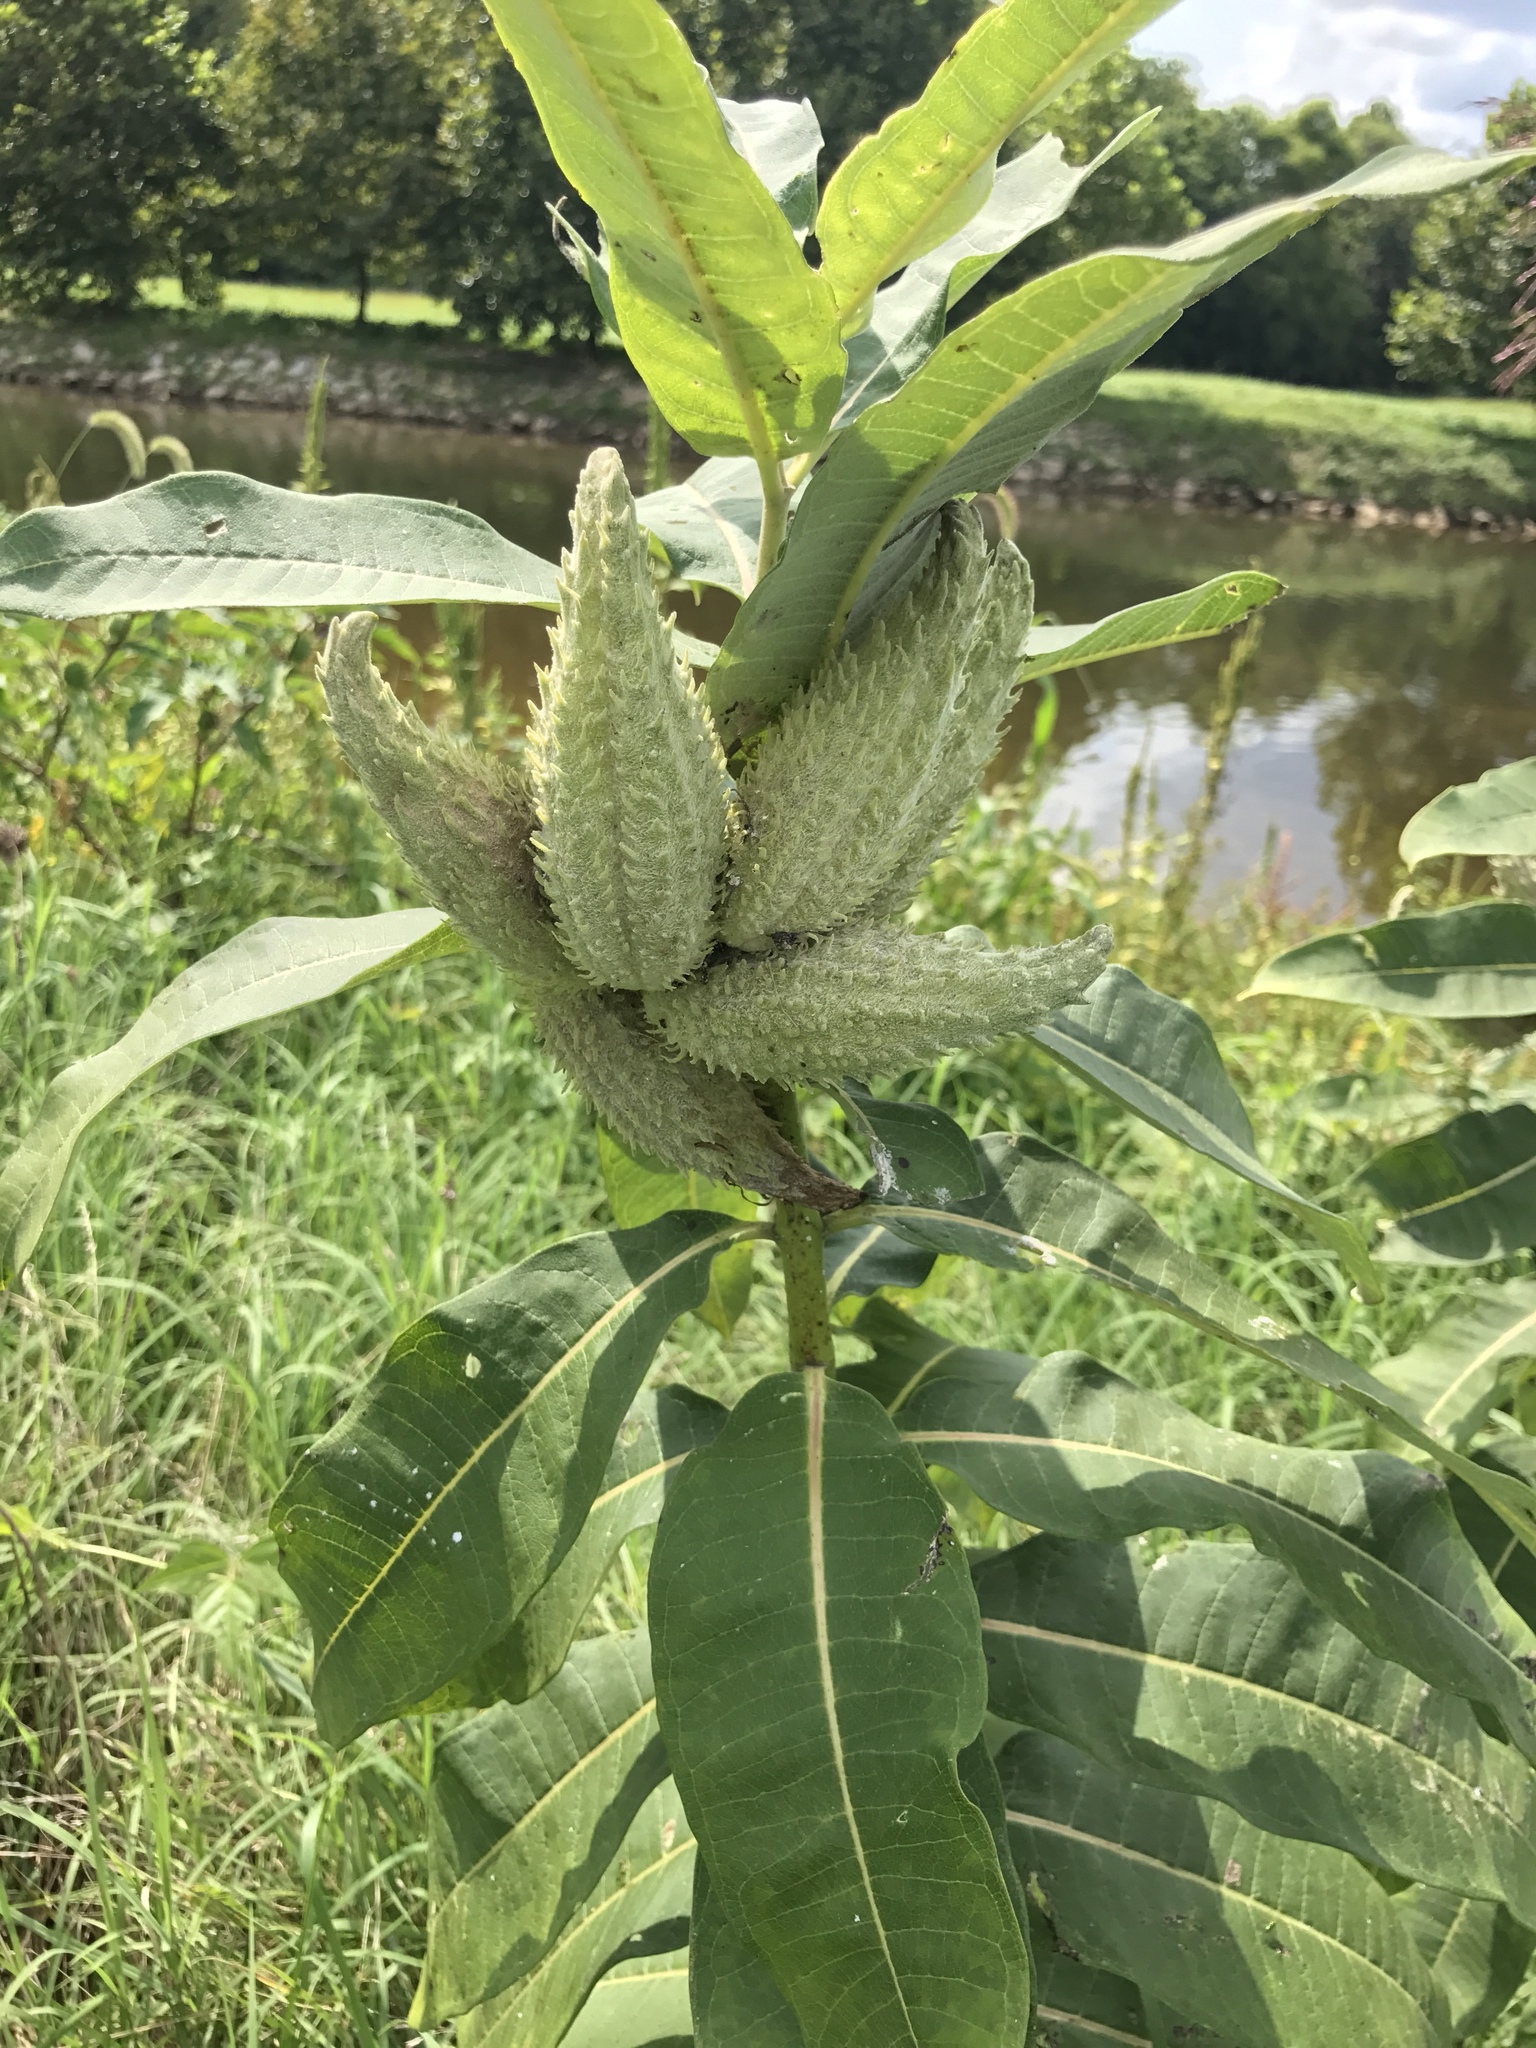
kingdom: Plantae
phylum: Tracheophyta
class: Magnoliopsida
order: Gentianales
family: Apocynaceae
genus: Asclepias
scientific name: Asclepias syriaca
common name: Common milkweed
